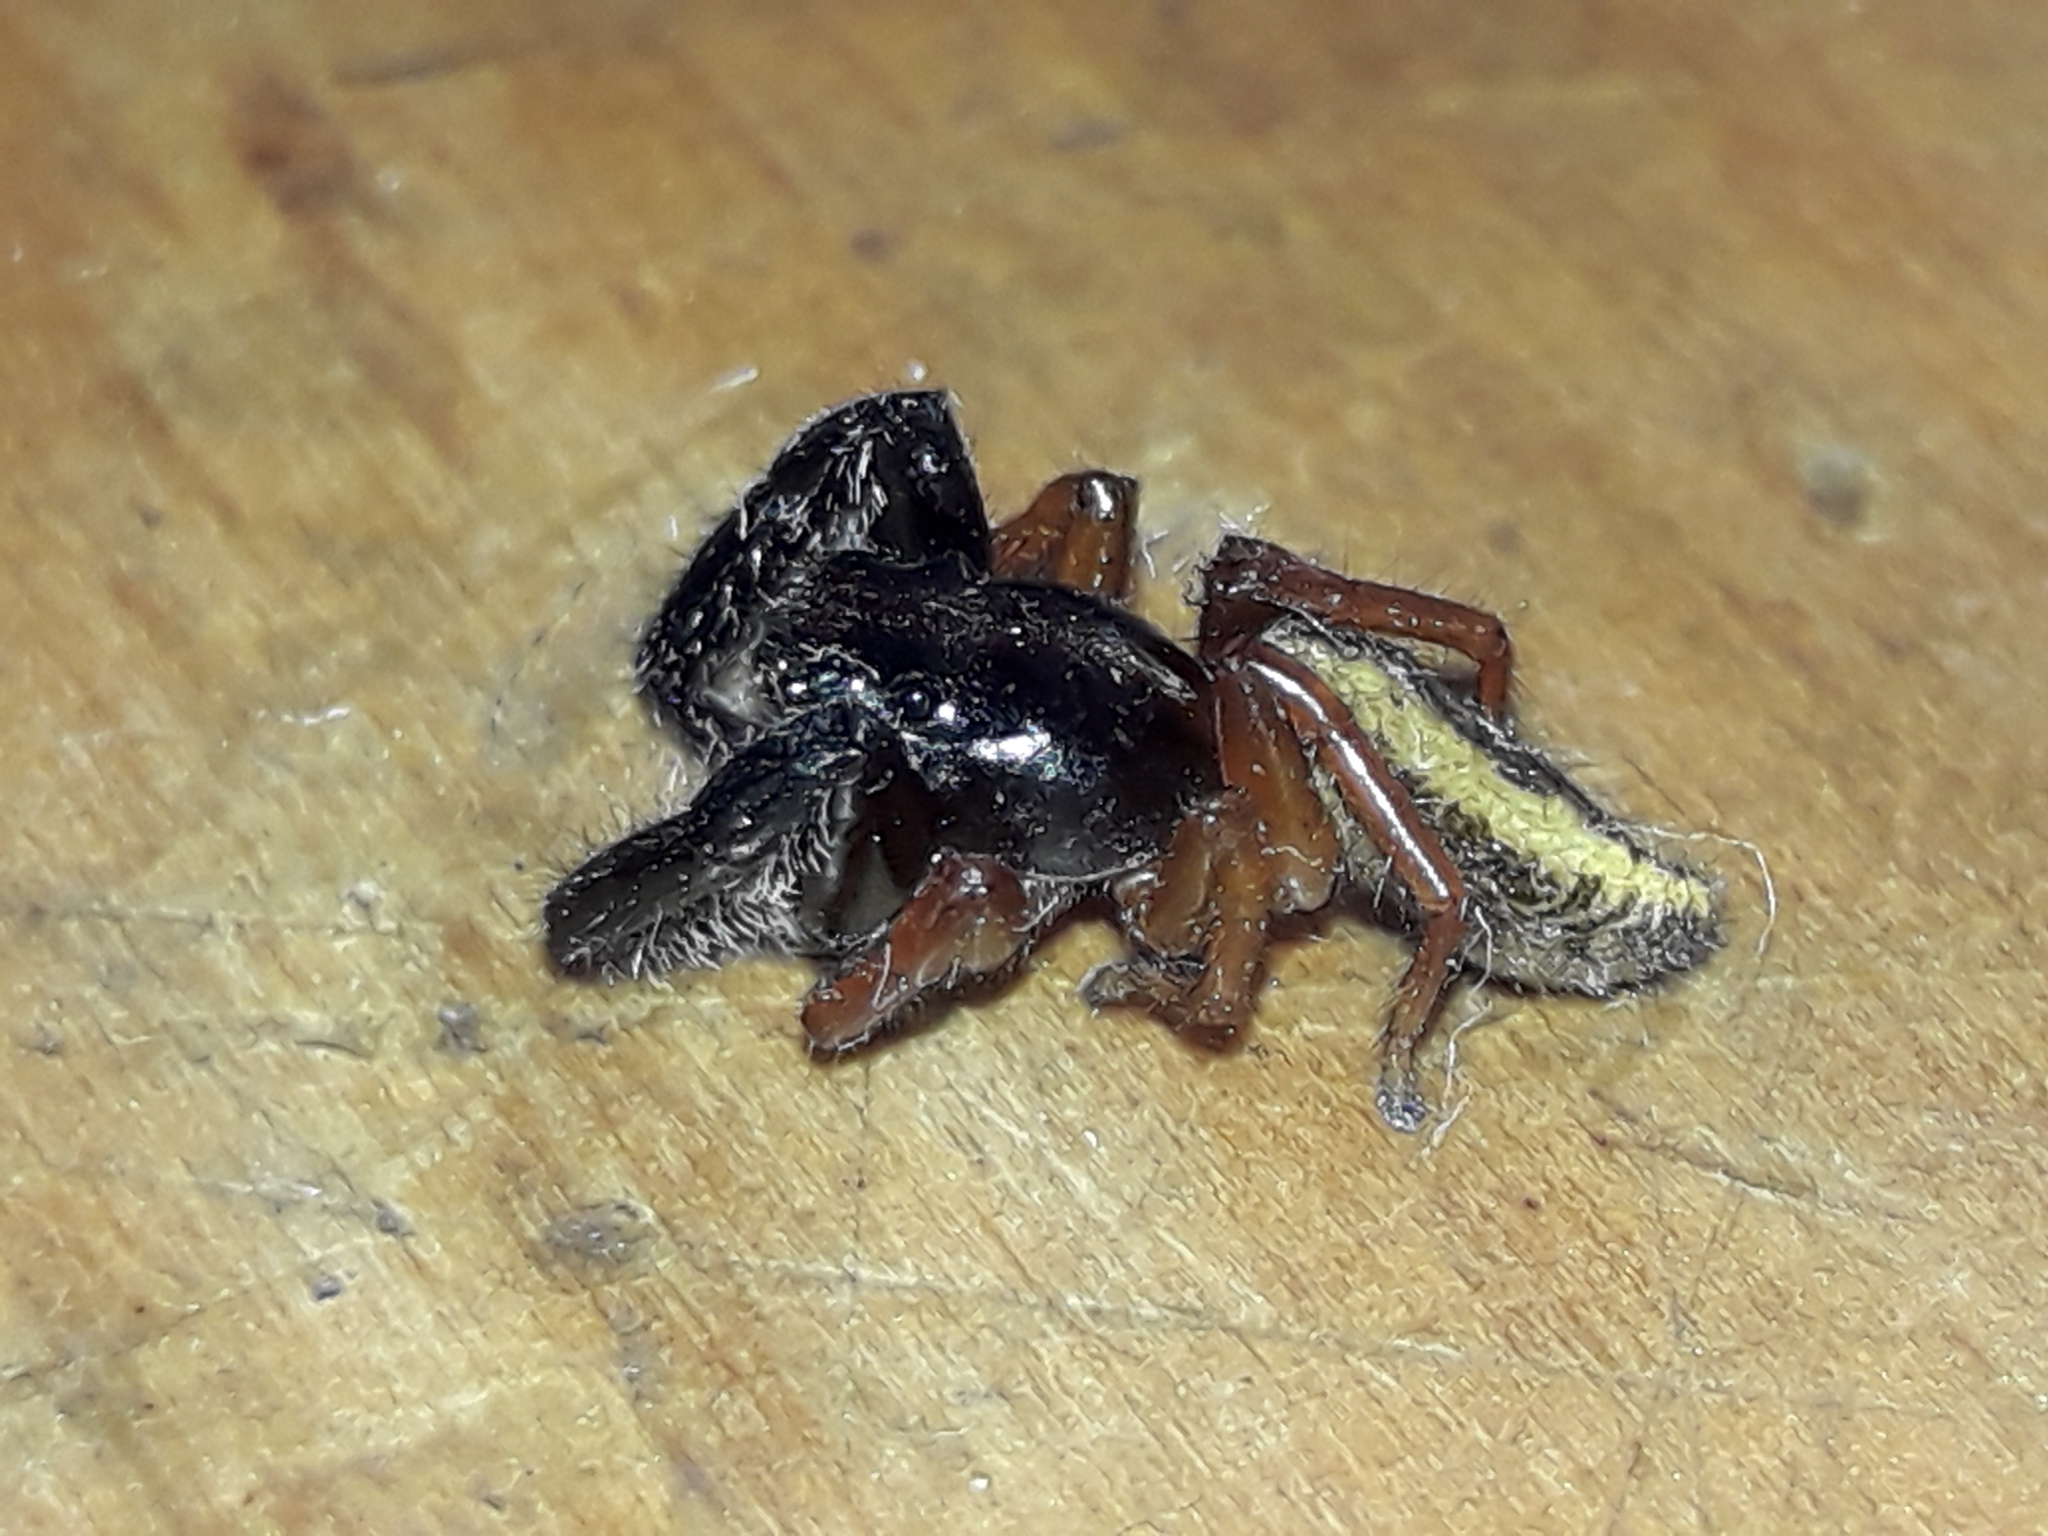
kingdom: Animalia
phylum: Arthropoda
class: Arachnida
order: Araneae
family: Salticidae
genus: Trite
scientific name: Trite planiceps
